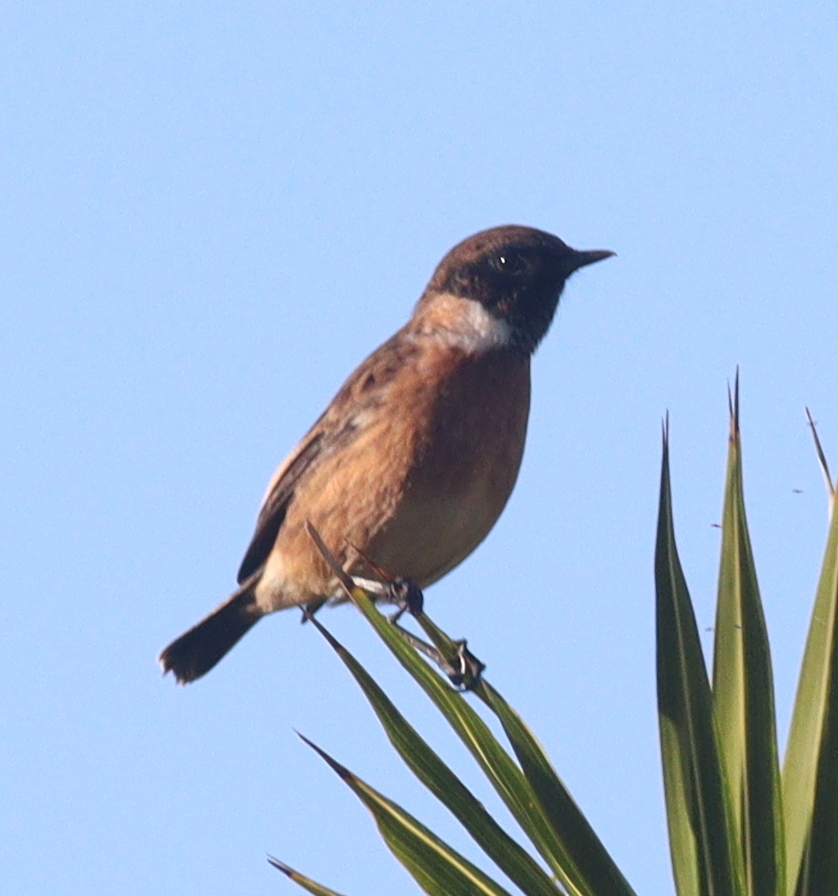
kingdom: Animalia
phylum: Chordata
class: Aves
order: Passeriformes
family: Muscicapidae
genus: Saxicola
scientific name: Saxicola rubicola
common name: European stonechat
